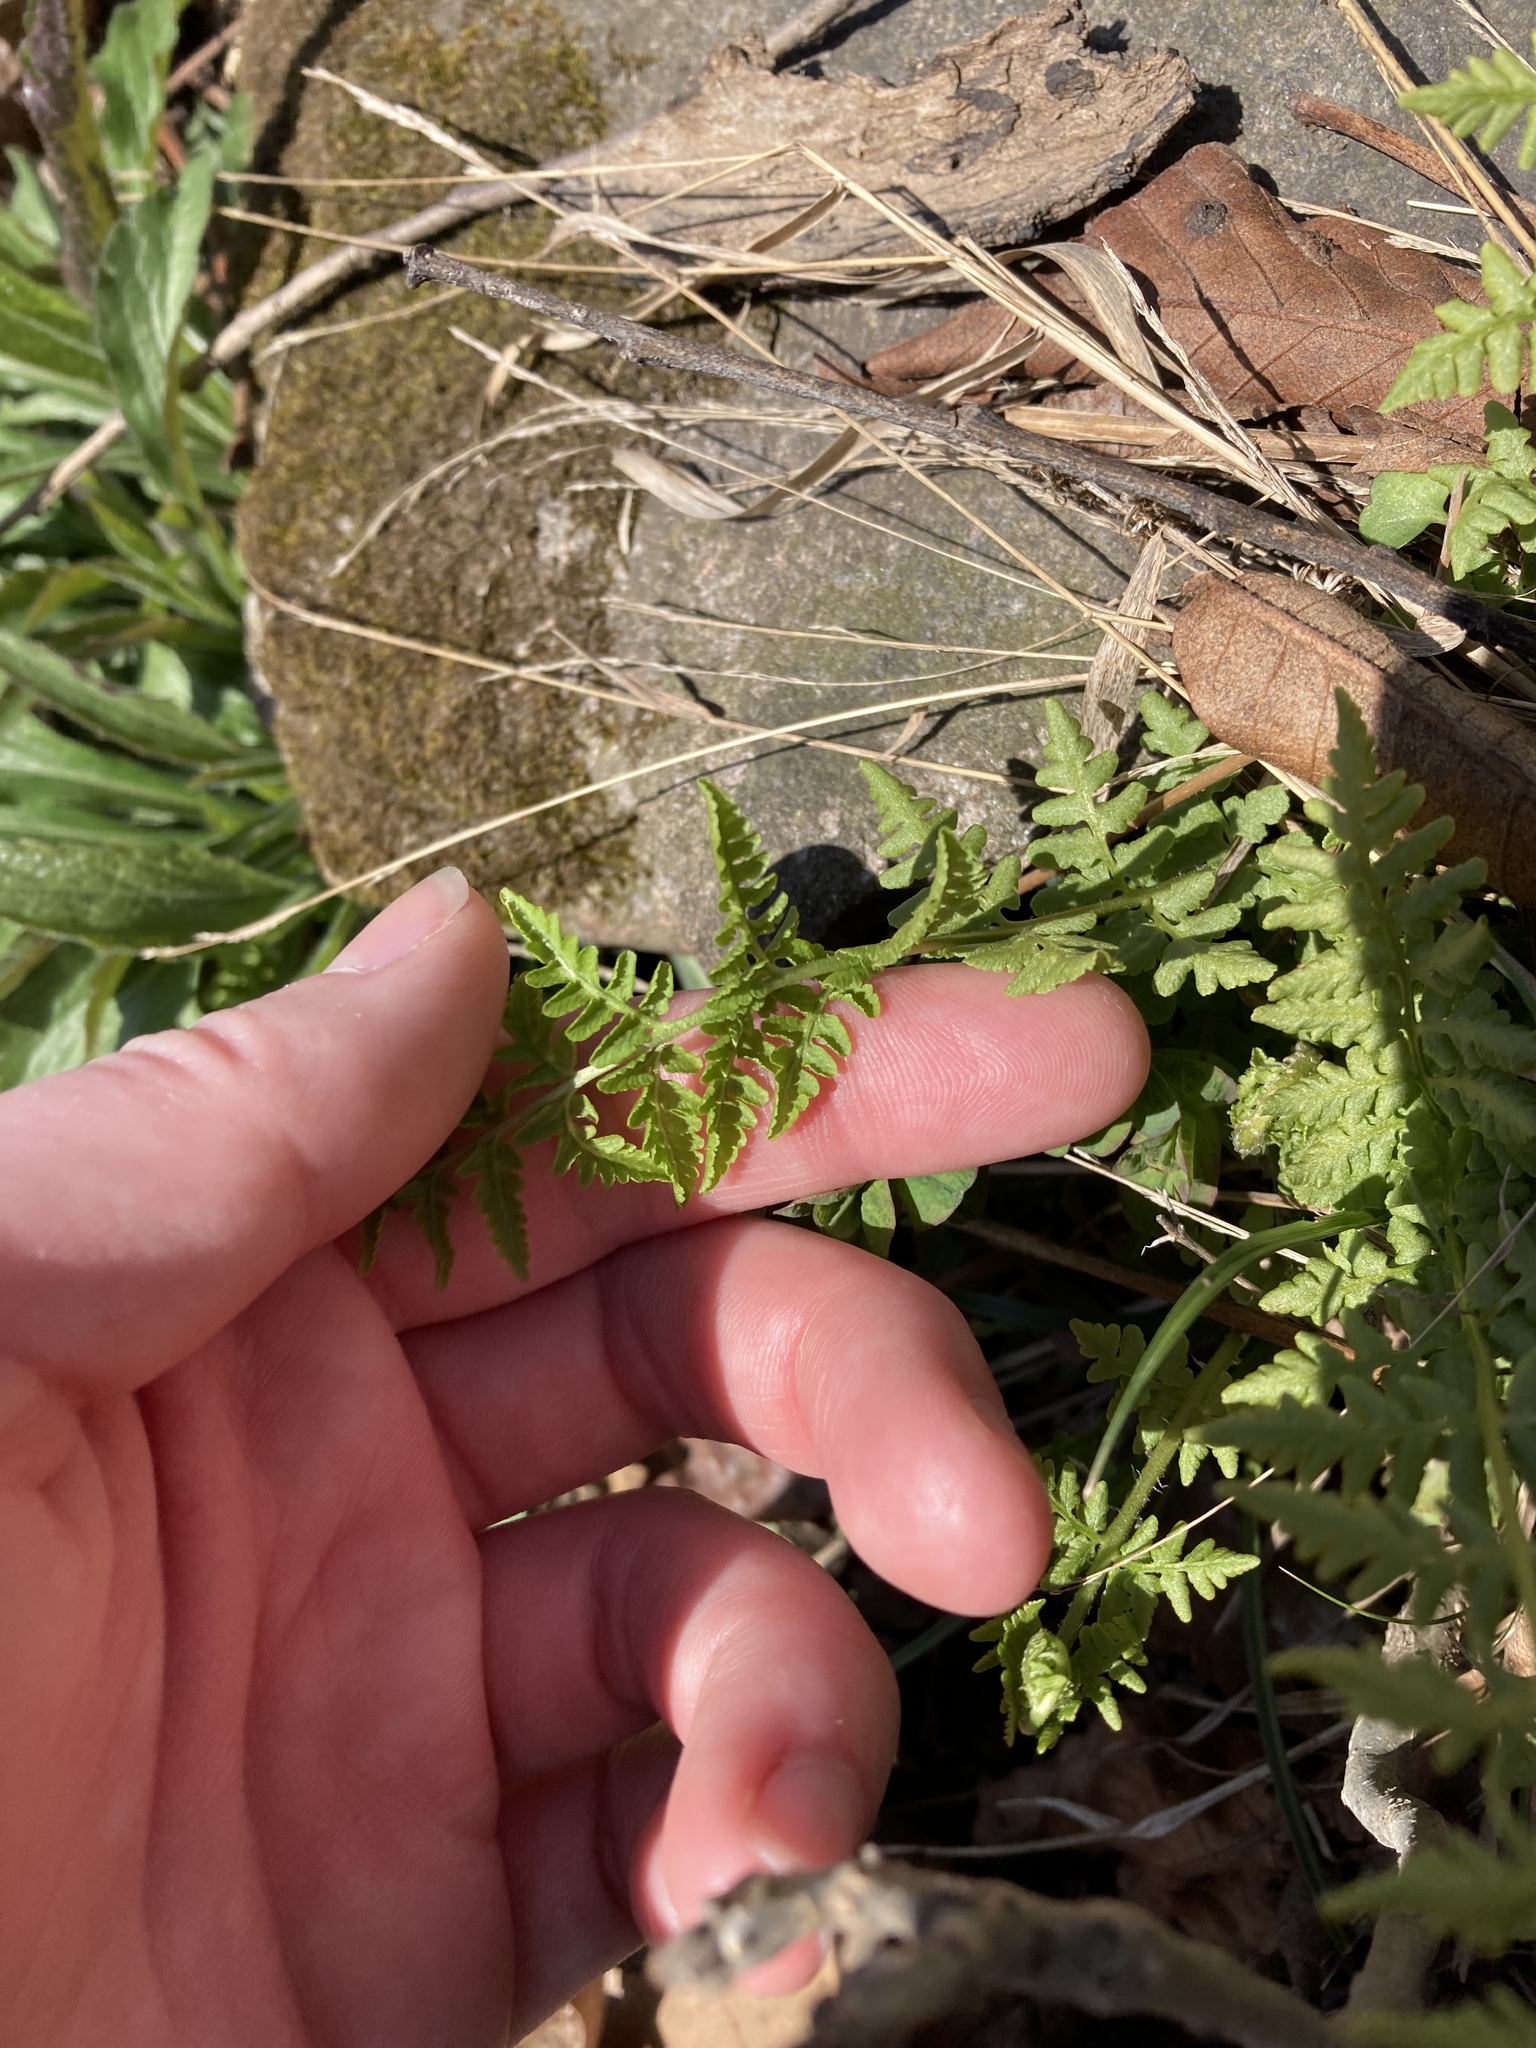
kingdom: Plantae
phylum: Tracheophyta
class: Polypodiopsida
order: Polypodiales
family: Woodsiaceae
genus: Physematium
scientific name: Physematium obtusum
